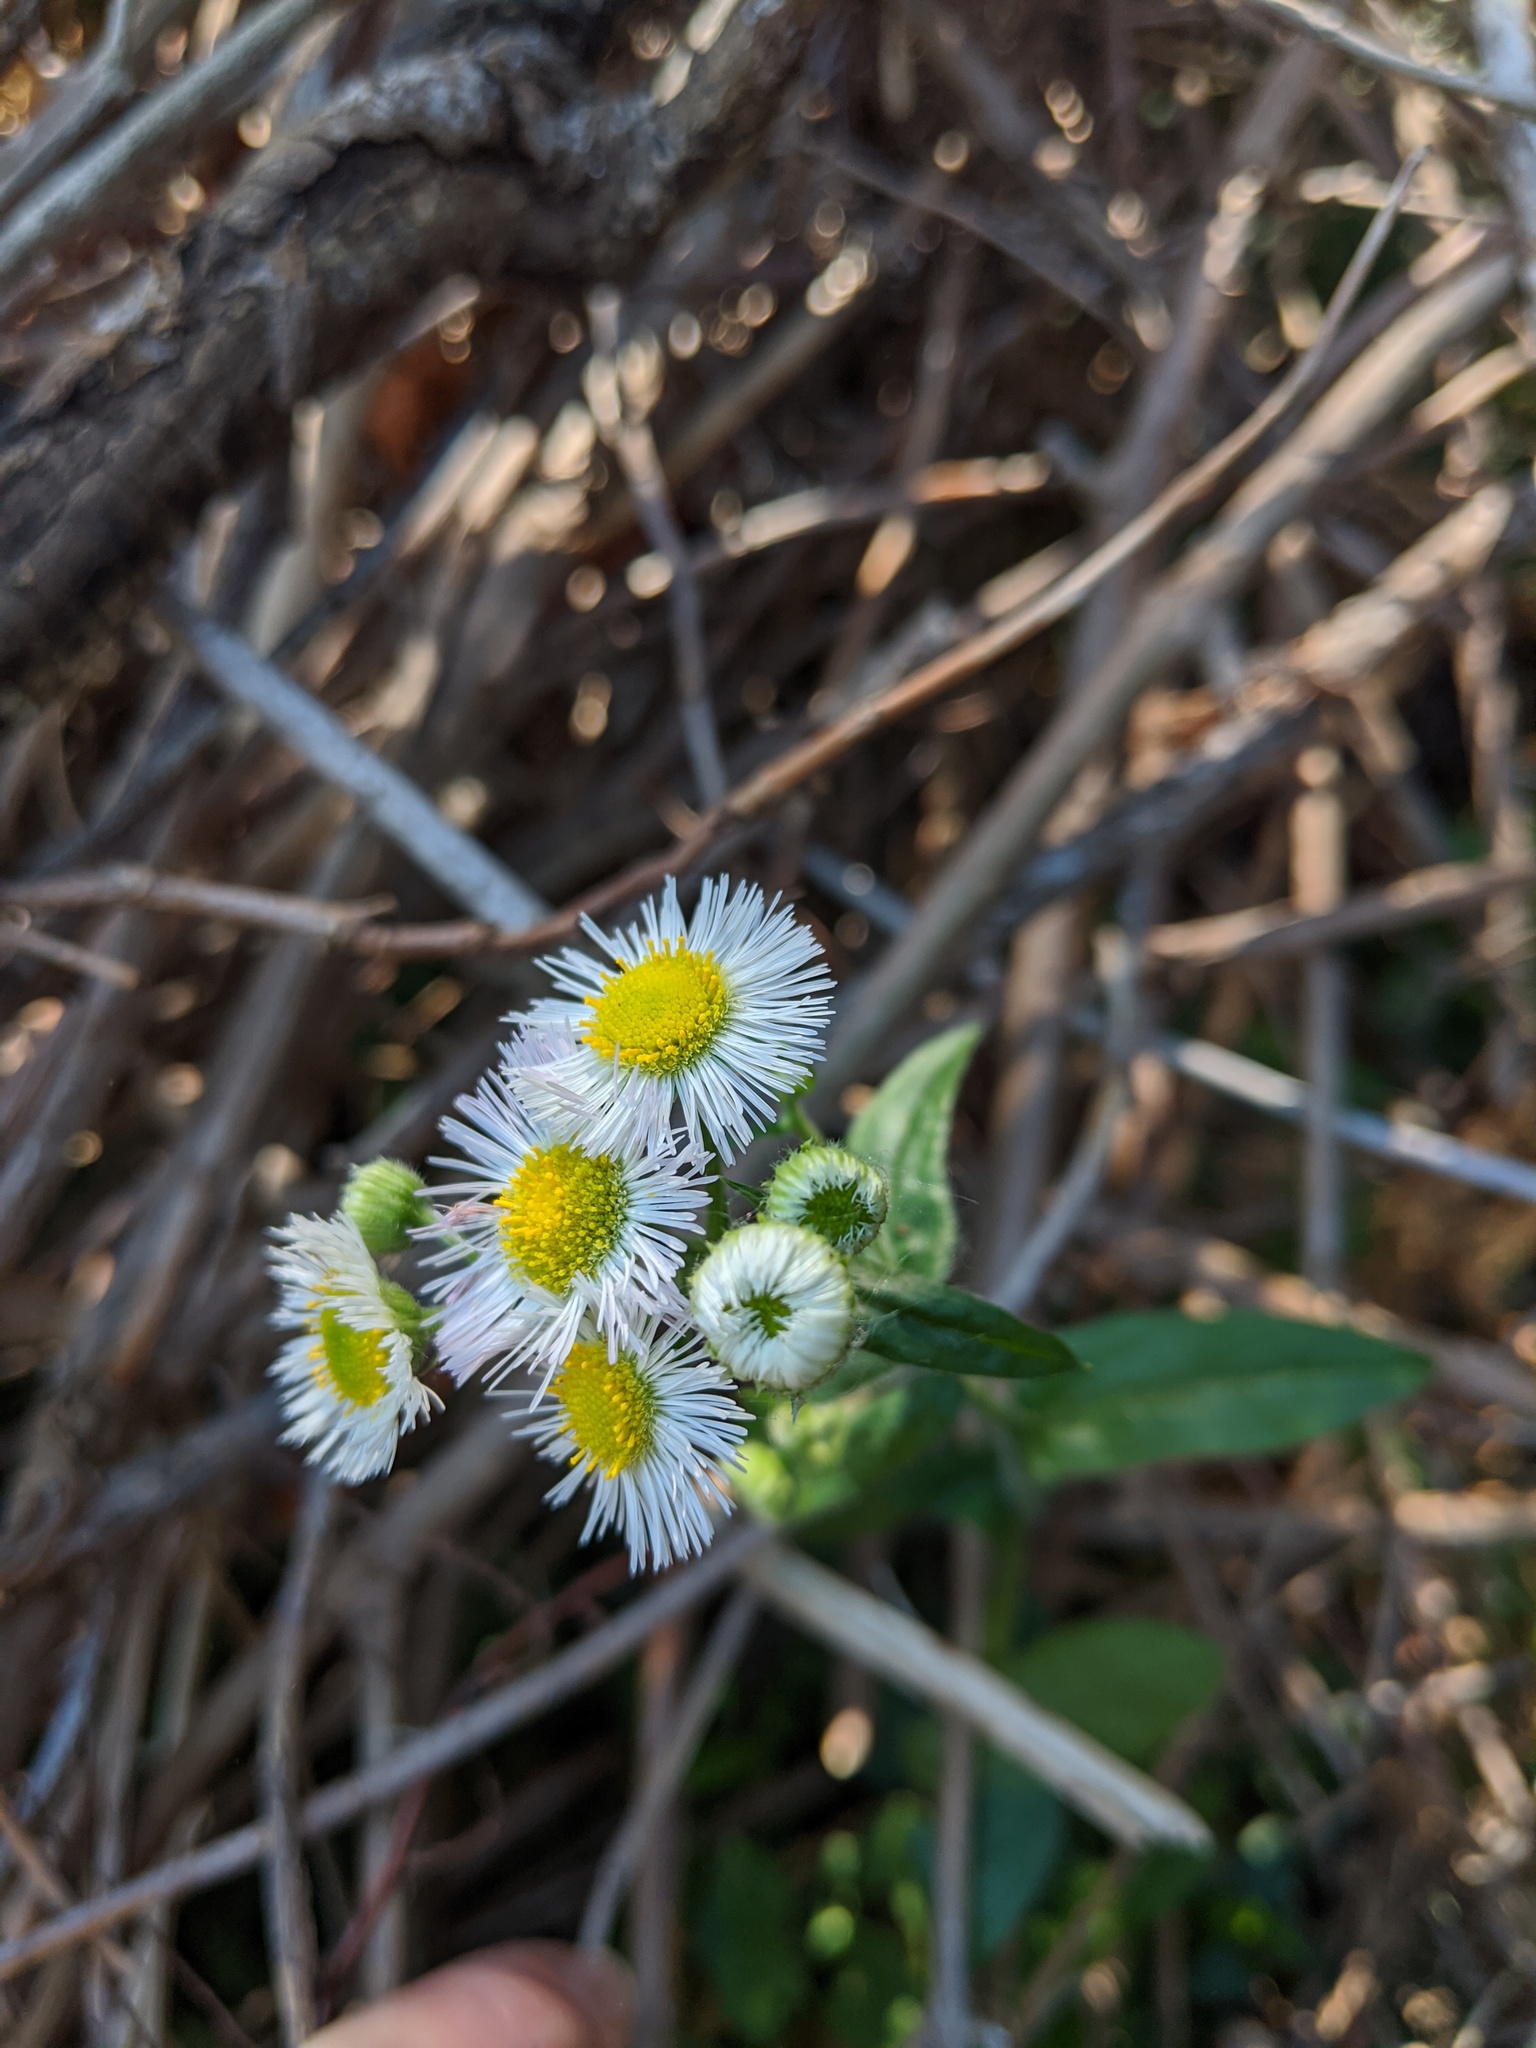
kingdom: Plantae
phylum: Tracheophyta
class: Magnoliopsida
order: Asterales
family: Asteraceae
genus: Erigeron
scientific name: Erigeron philadelphicus
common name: Robin's-plantain
